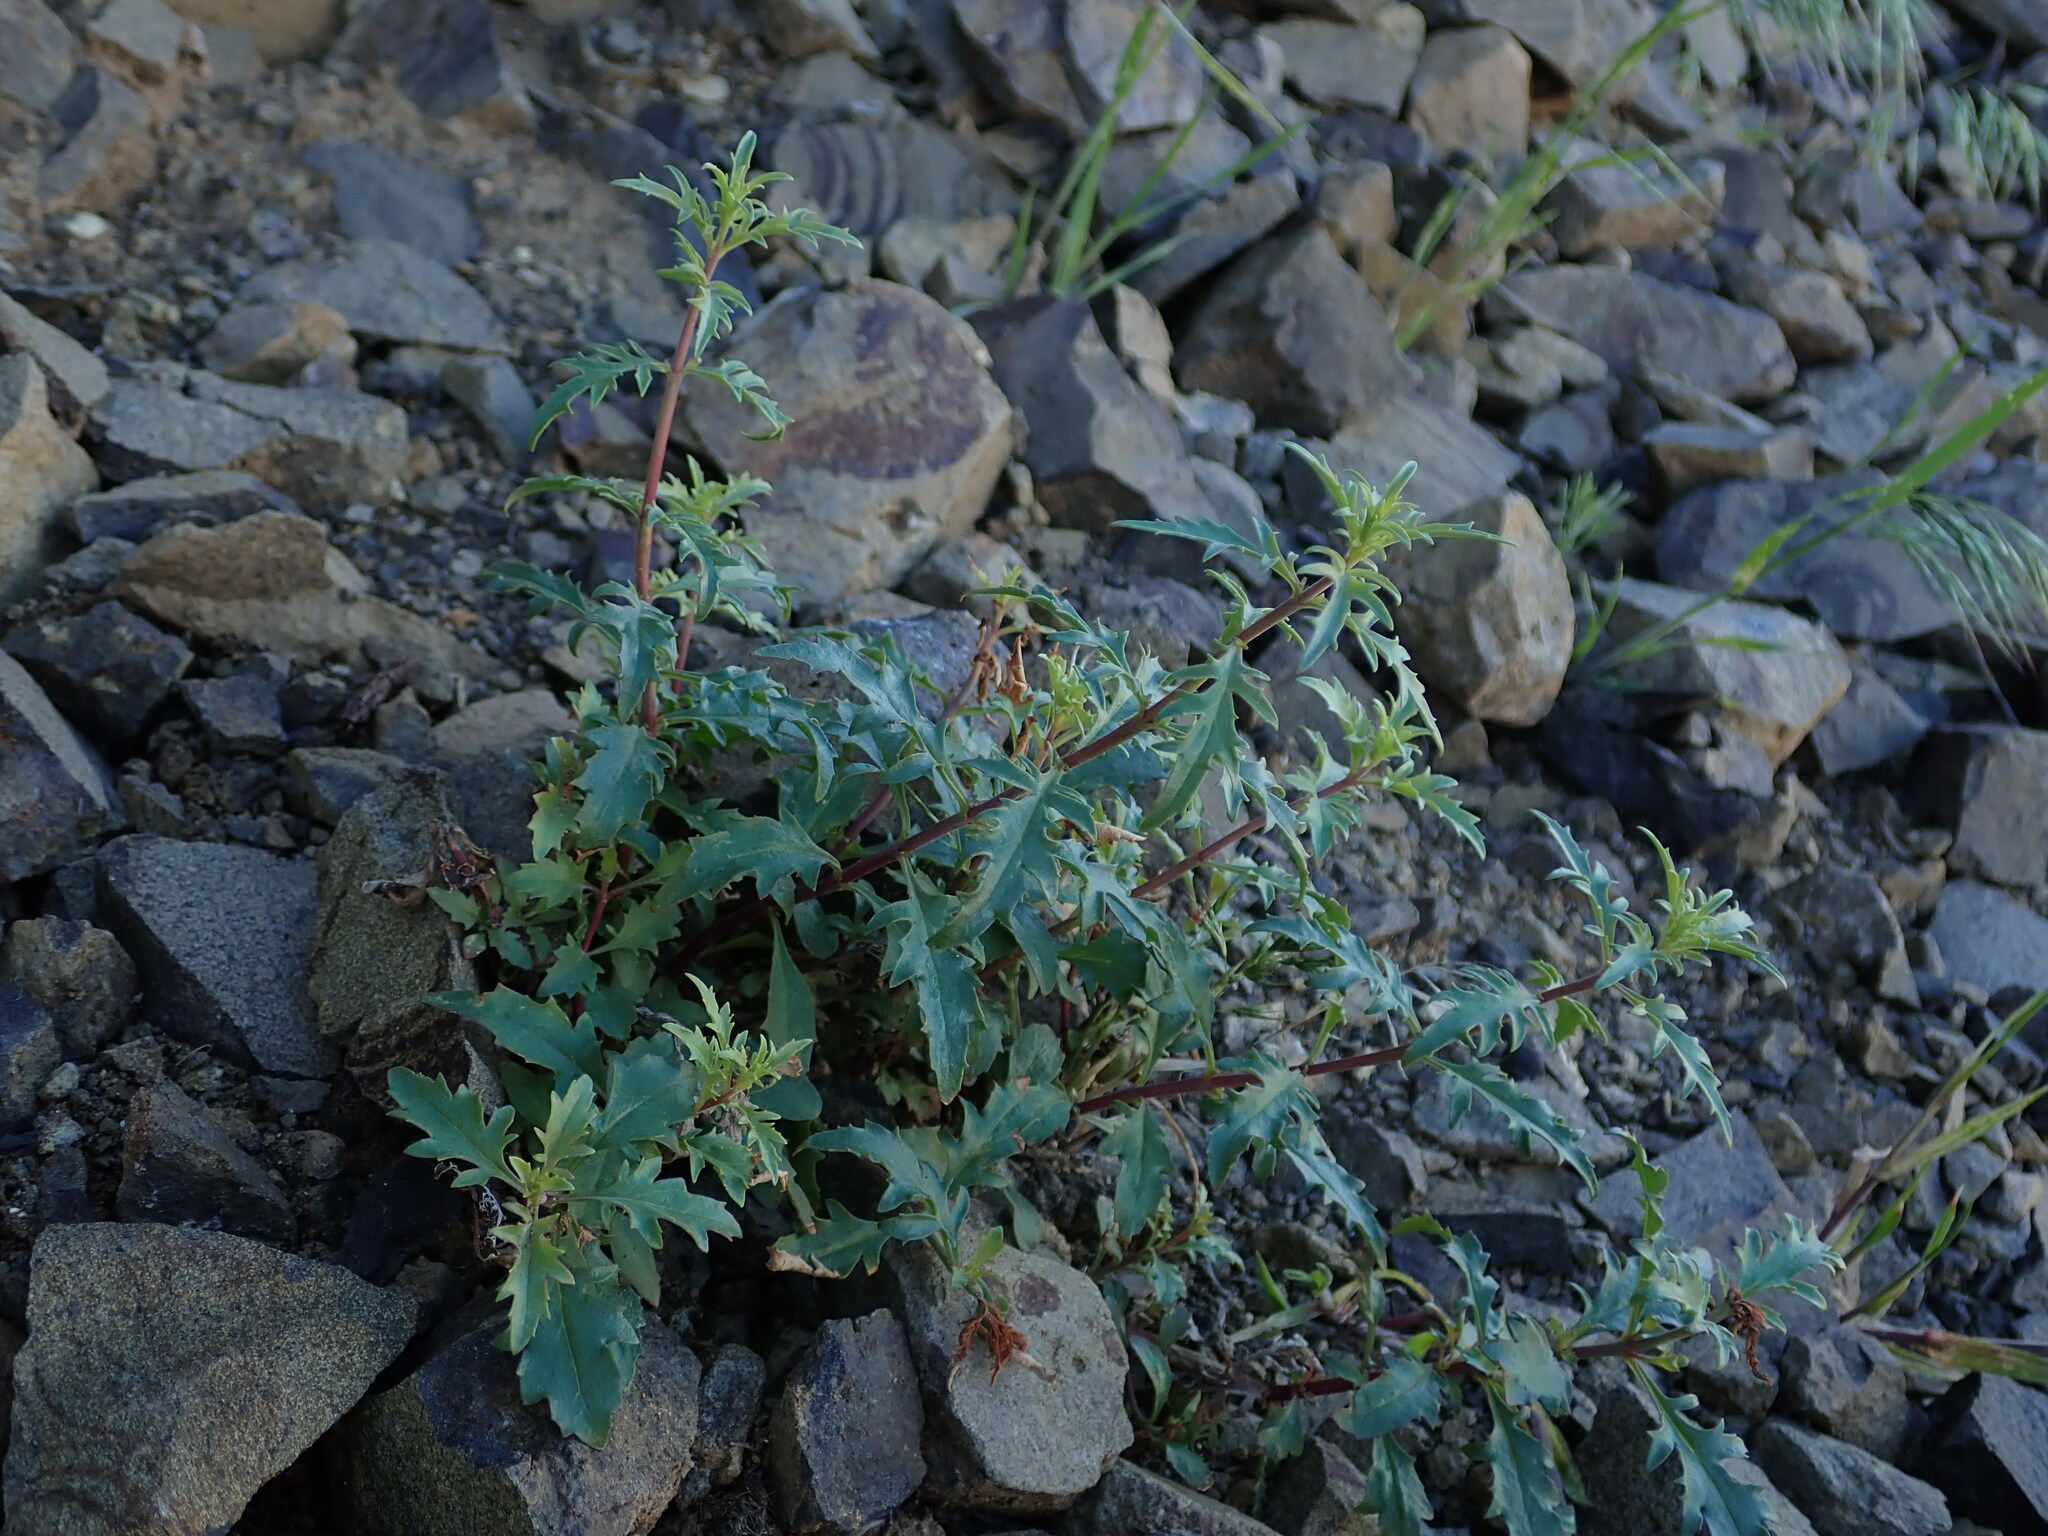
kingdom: Plantae
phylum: Tracheophyta
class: Magnoliopsida
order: Lamiales
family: Plantaginaceae
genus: Penstemon
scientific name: Penstemon richardsonii
